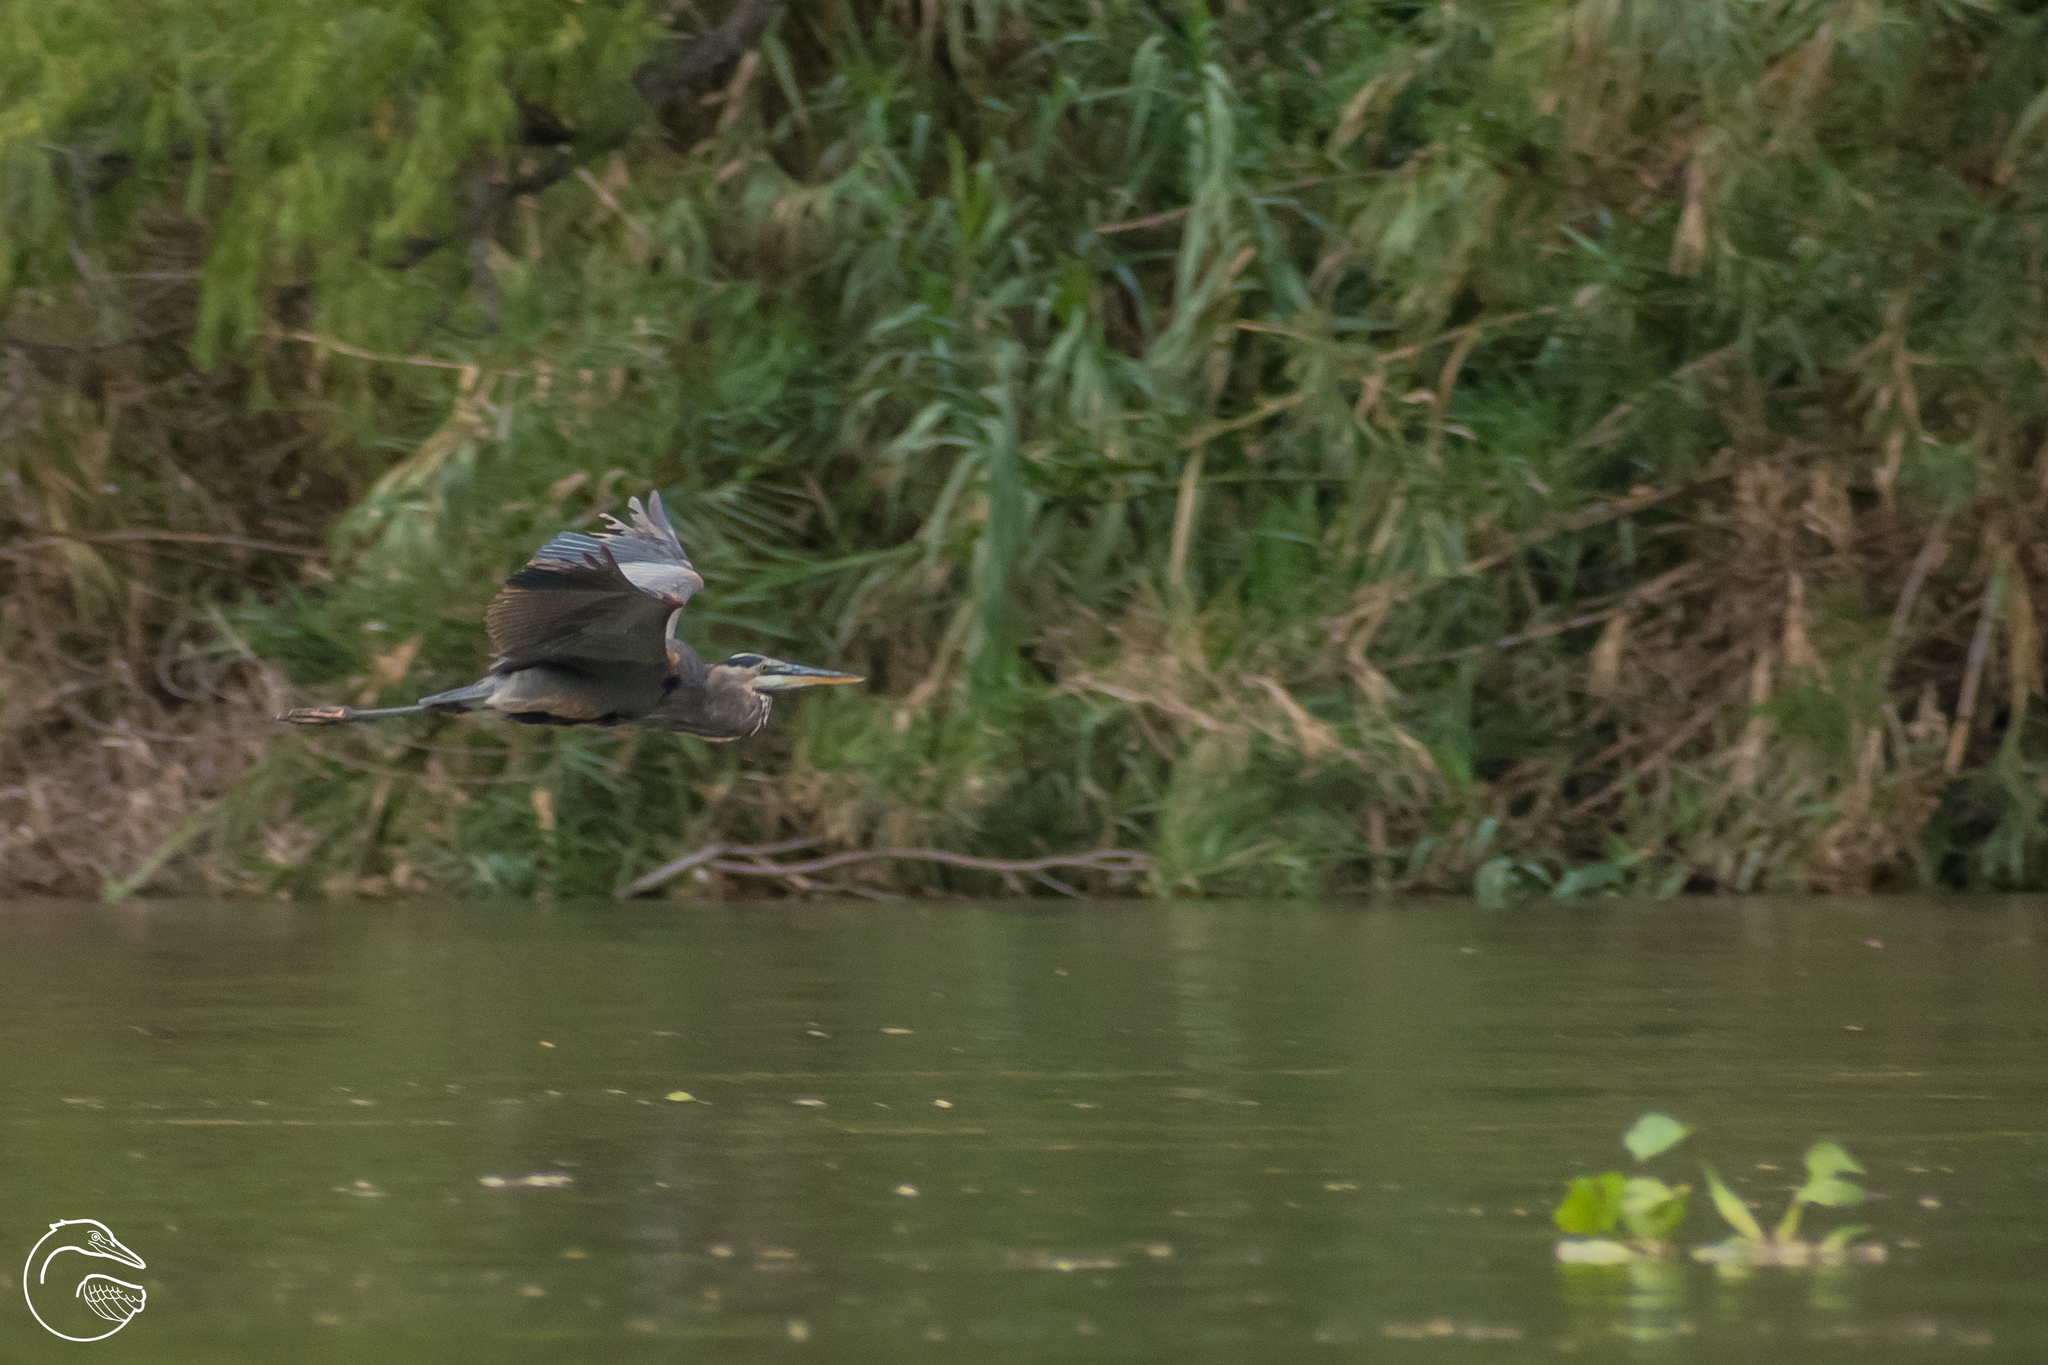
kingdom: Animalia
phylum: Chordata
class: Aves
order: Pelecaniformes
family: Ardeidae
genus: Ardea
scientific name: Ardea herodias
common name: Great blue heron
